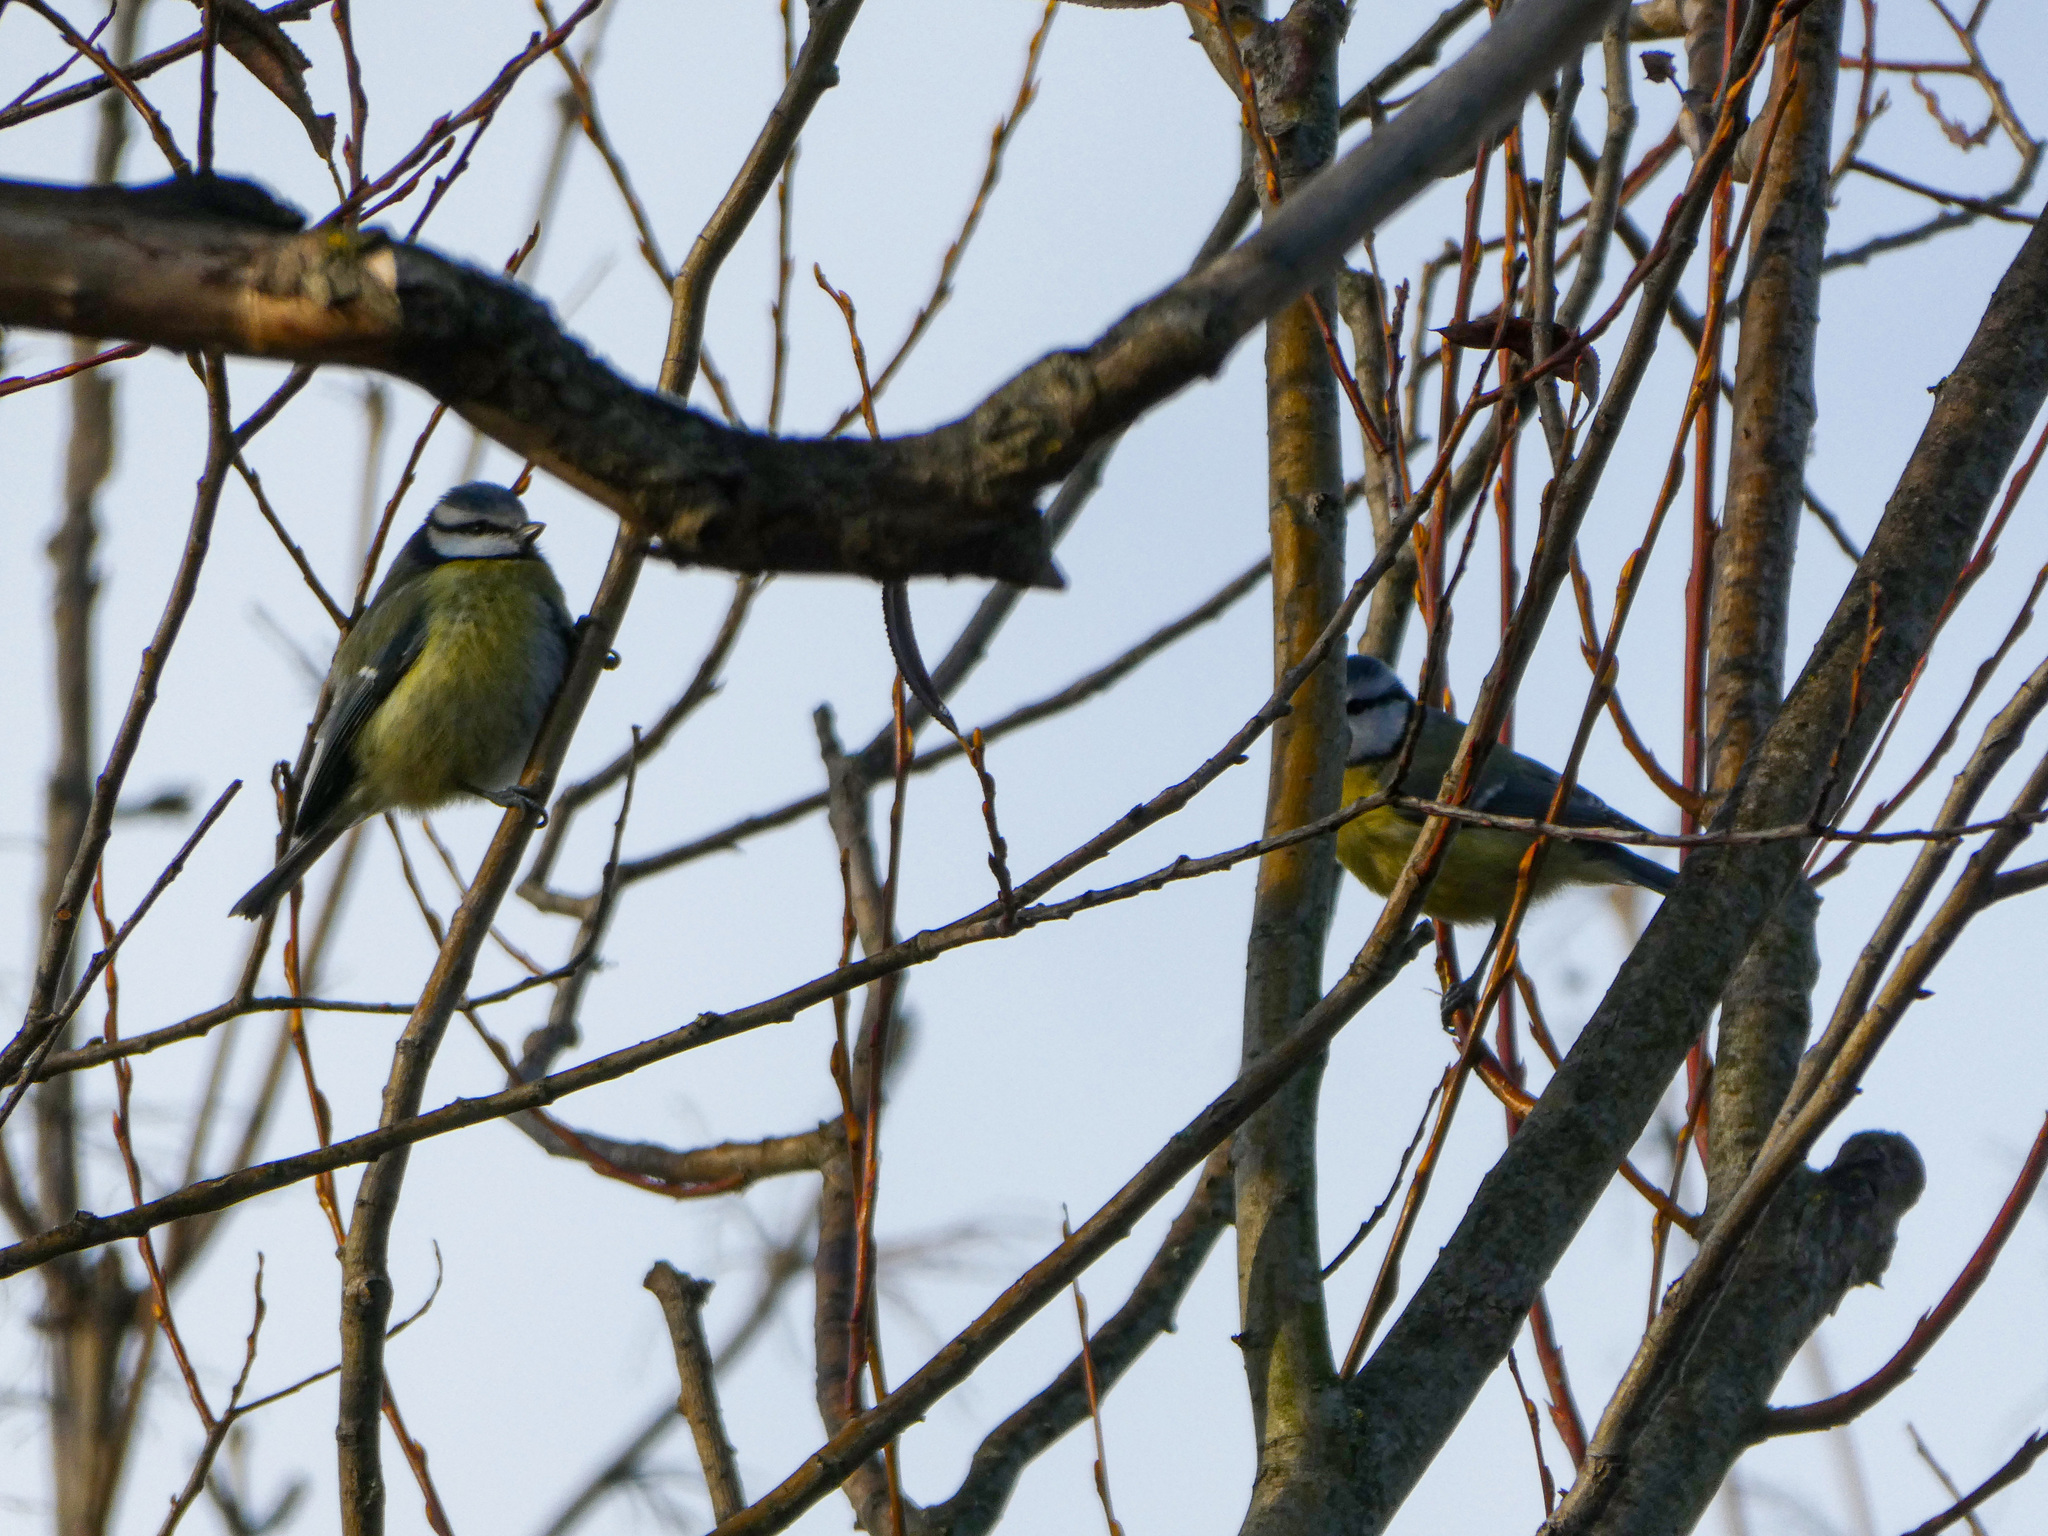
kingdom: Animalia
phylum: Chordata
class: Aves
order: Passeriformes
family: Paridae
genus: Cyanistes
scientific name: Cyanistes caeruleus
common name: Eurasian blue tit
